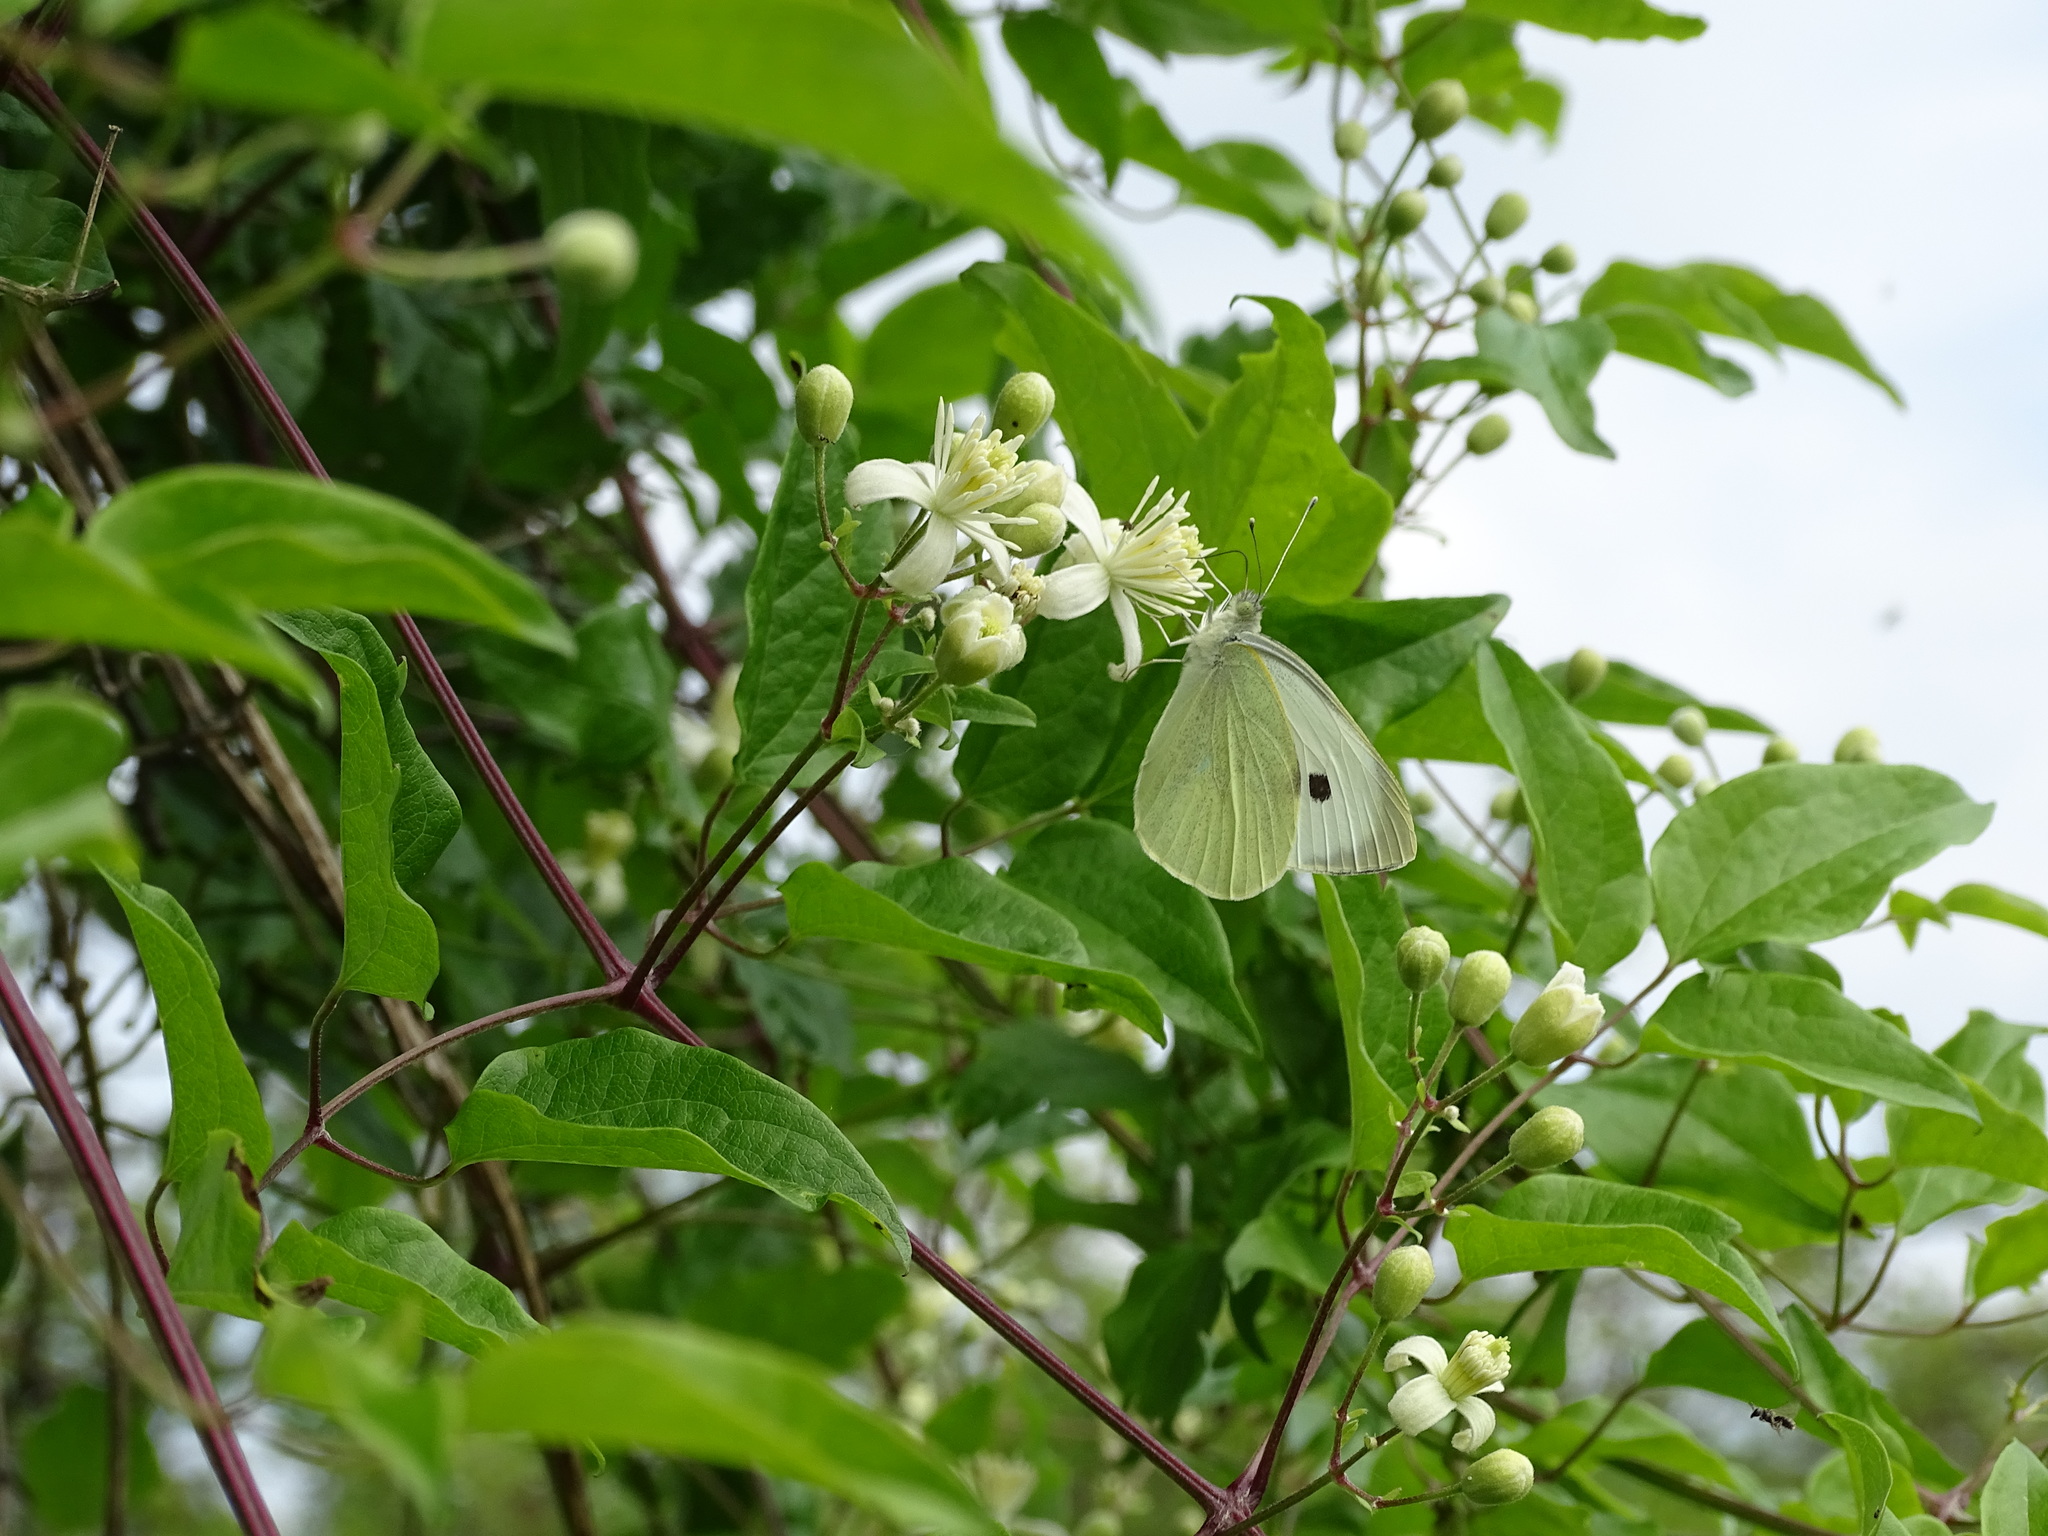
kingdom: Animalia
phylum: Arthropoda
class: Insecta
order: Lepidoptera
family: Pieridae
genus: Pieris
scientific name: Pieris brassicae
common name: Large white
